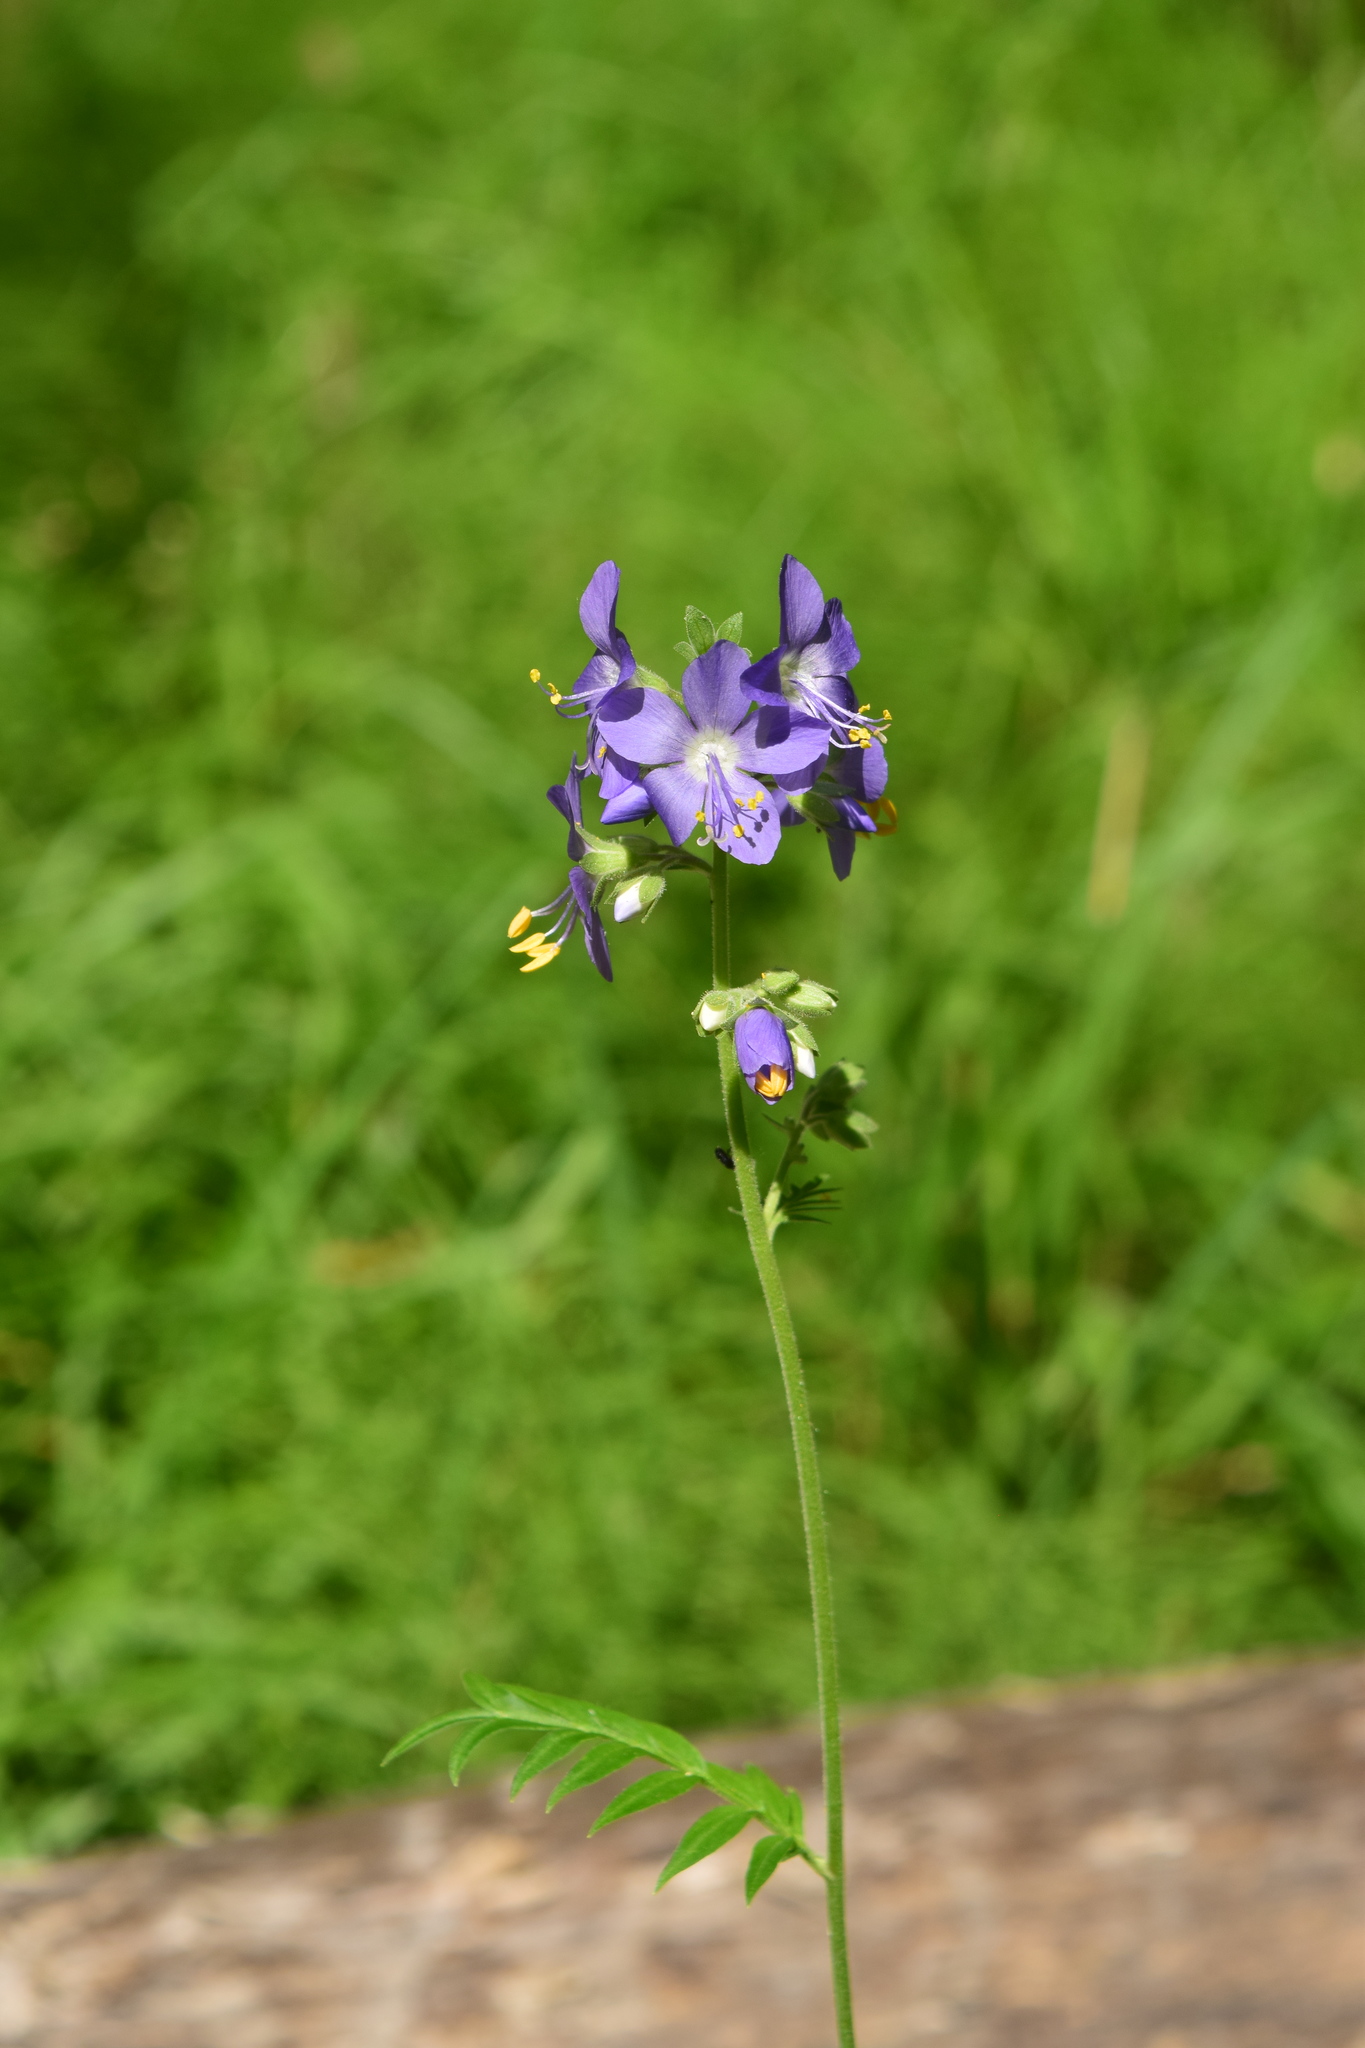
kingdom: Plantae
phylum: Tracheophyta
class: Magnoliopsida
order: Ericales
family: Polemoniaceae
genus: Polemonium
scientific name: Polemonium caeruleum
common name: Jacob's-ladder
